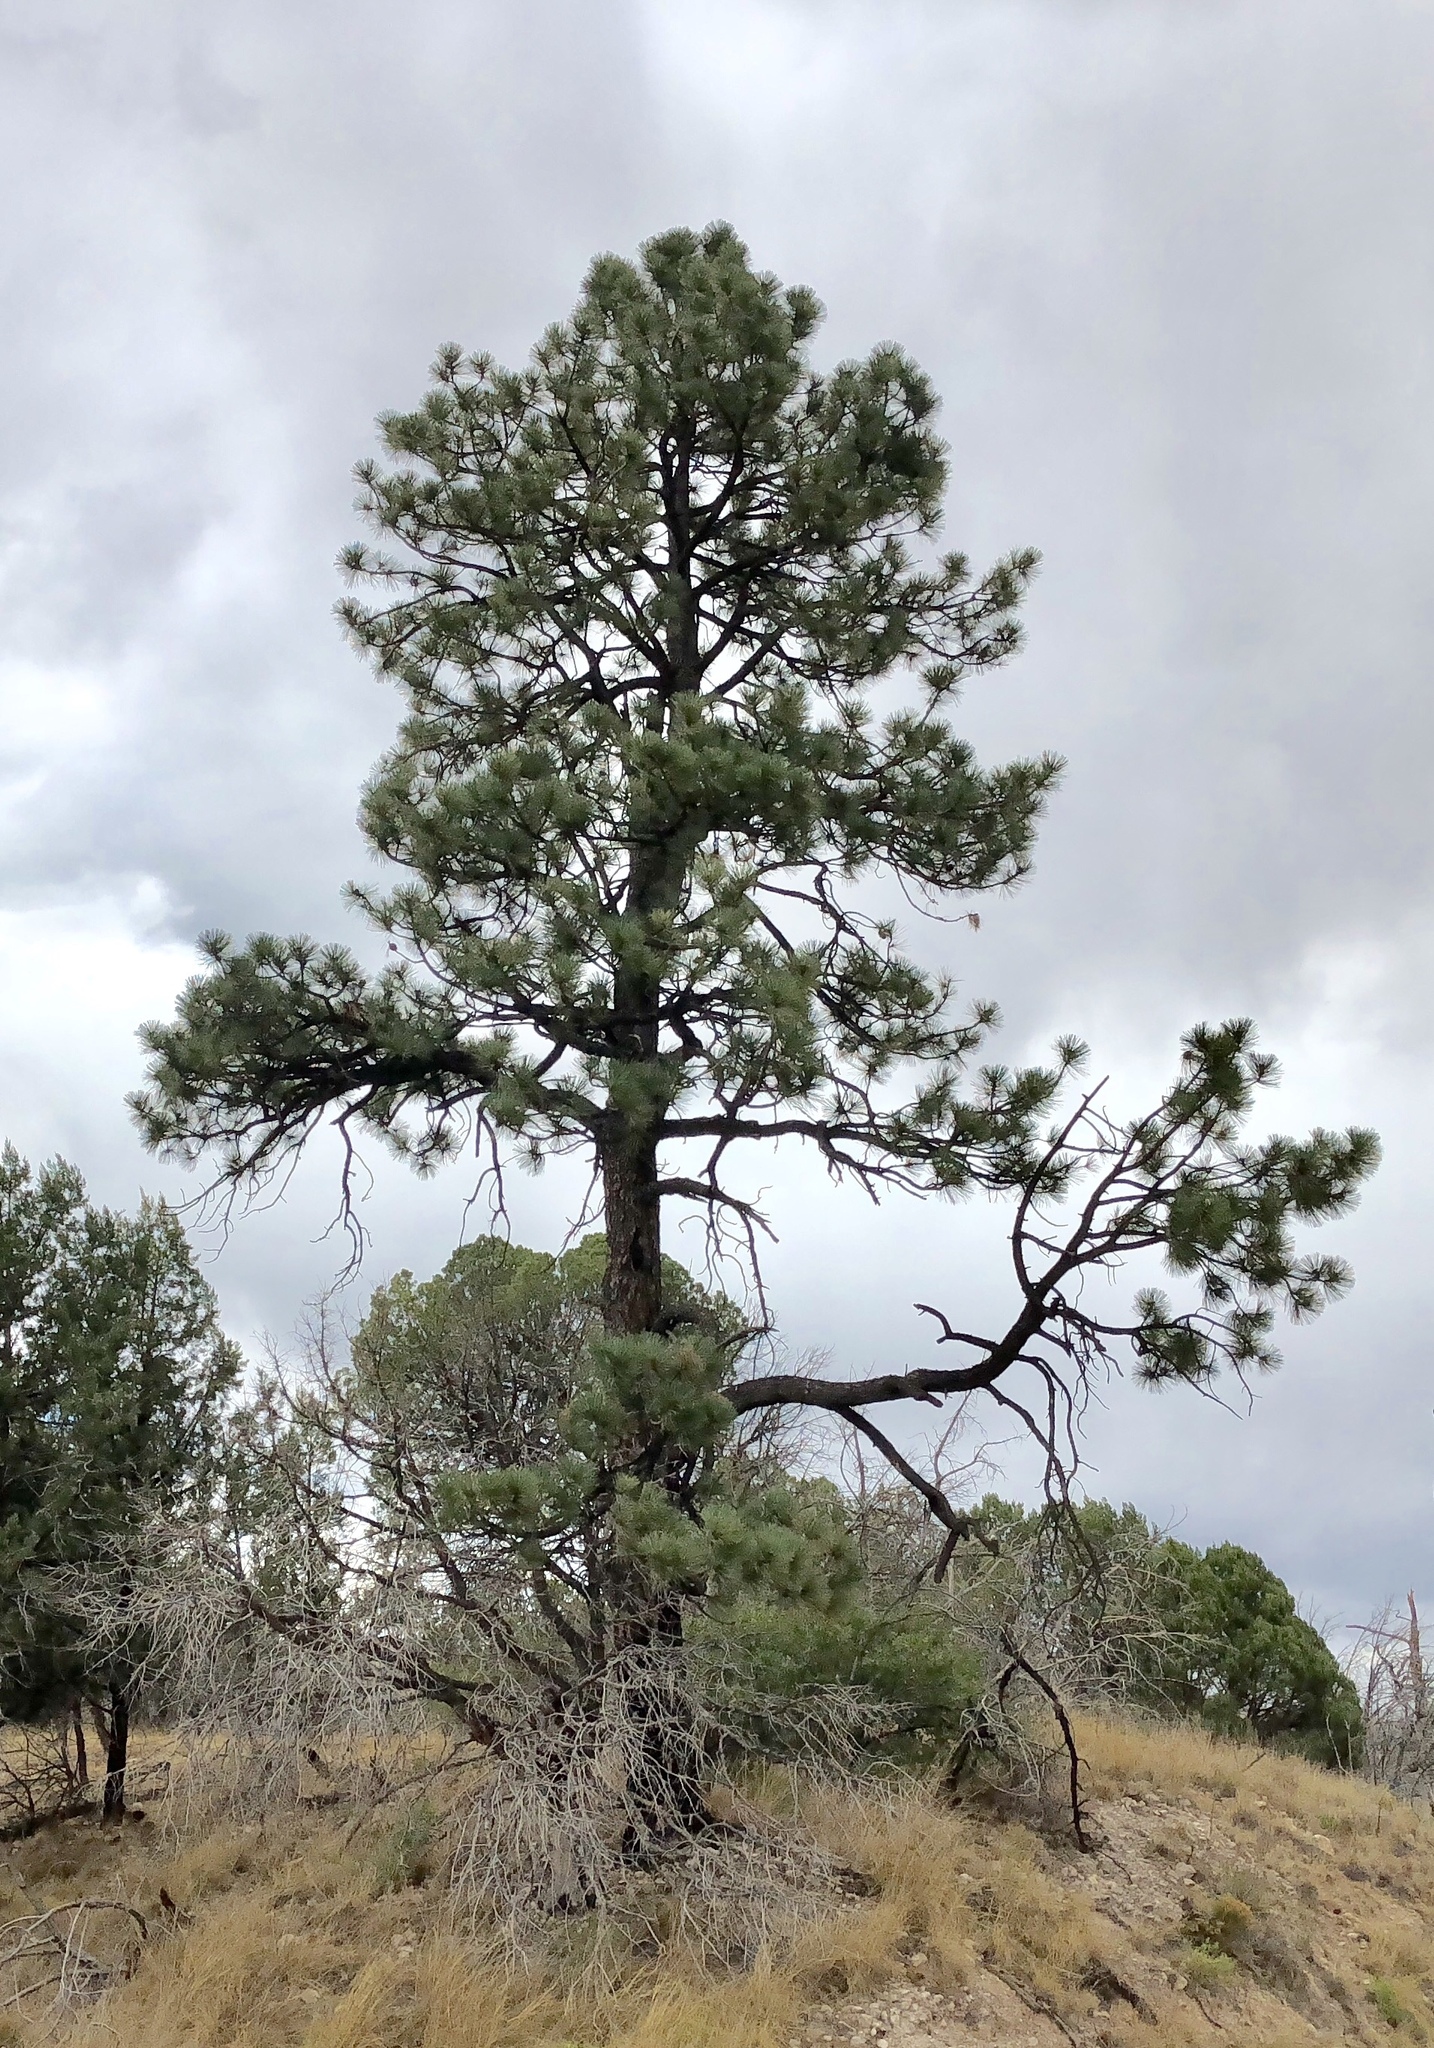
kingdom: Plantae
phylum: Tracheophyta
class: Pinopsida
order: Pinales
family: Pinaceae
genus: Pinus
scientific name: Pinus ponderosa
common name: Western yellow-pine
